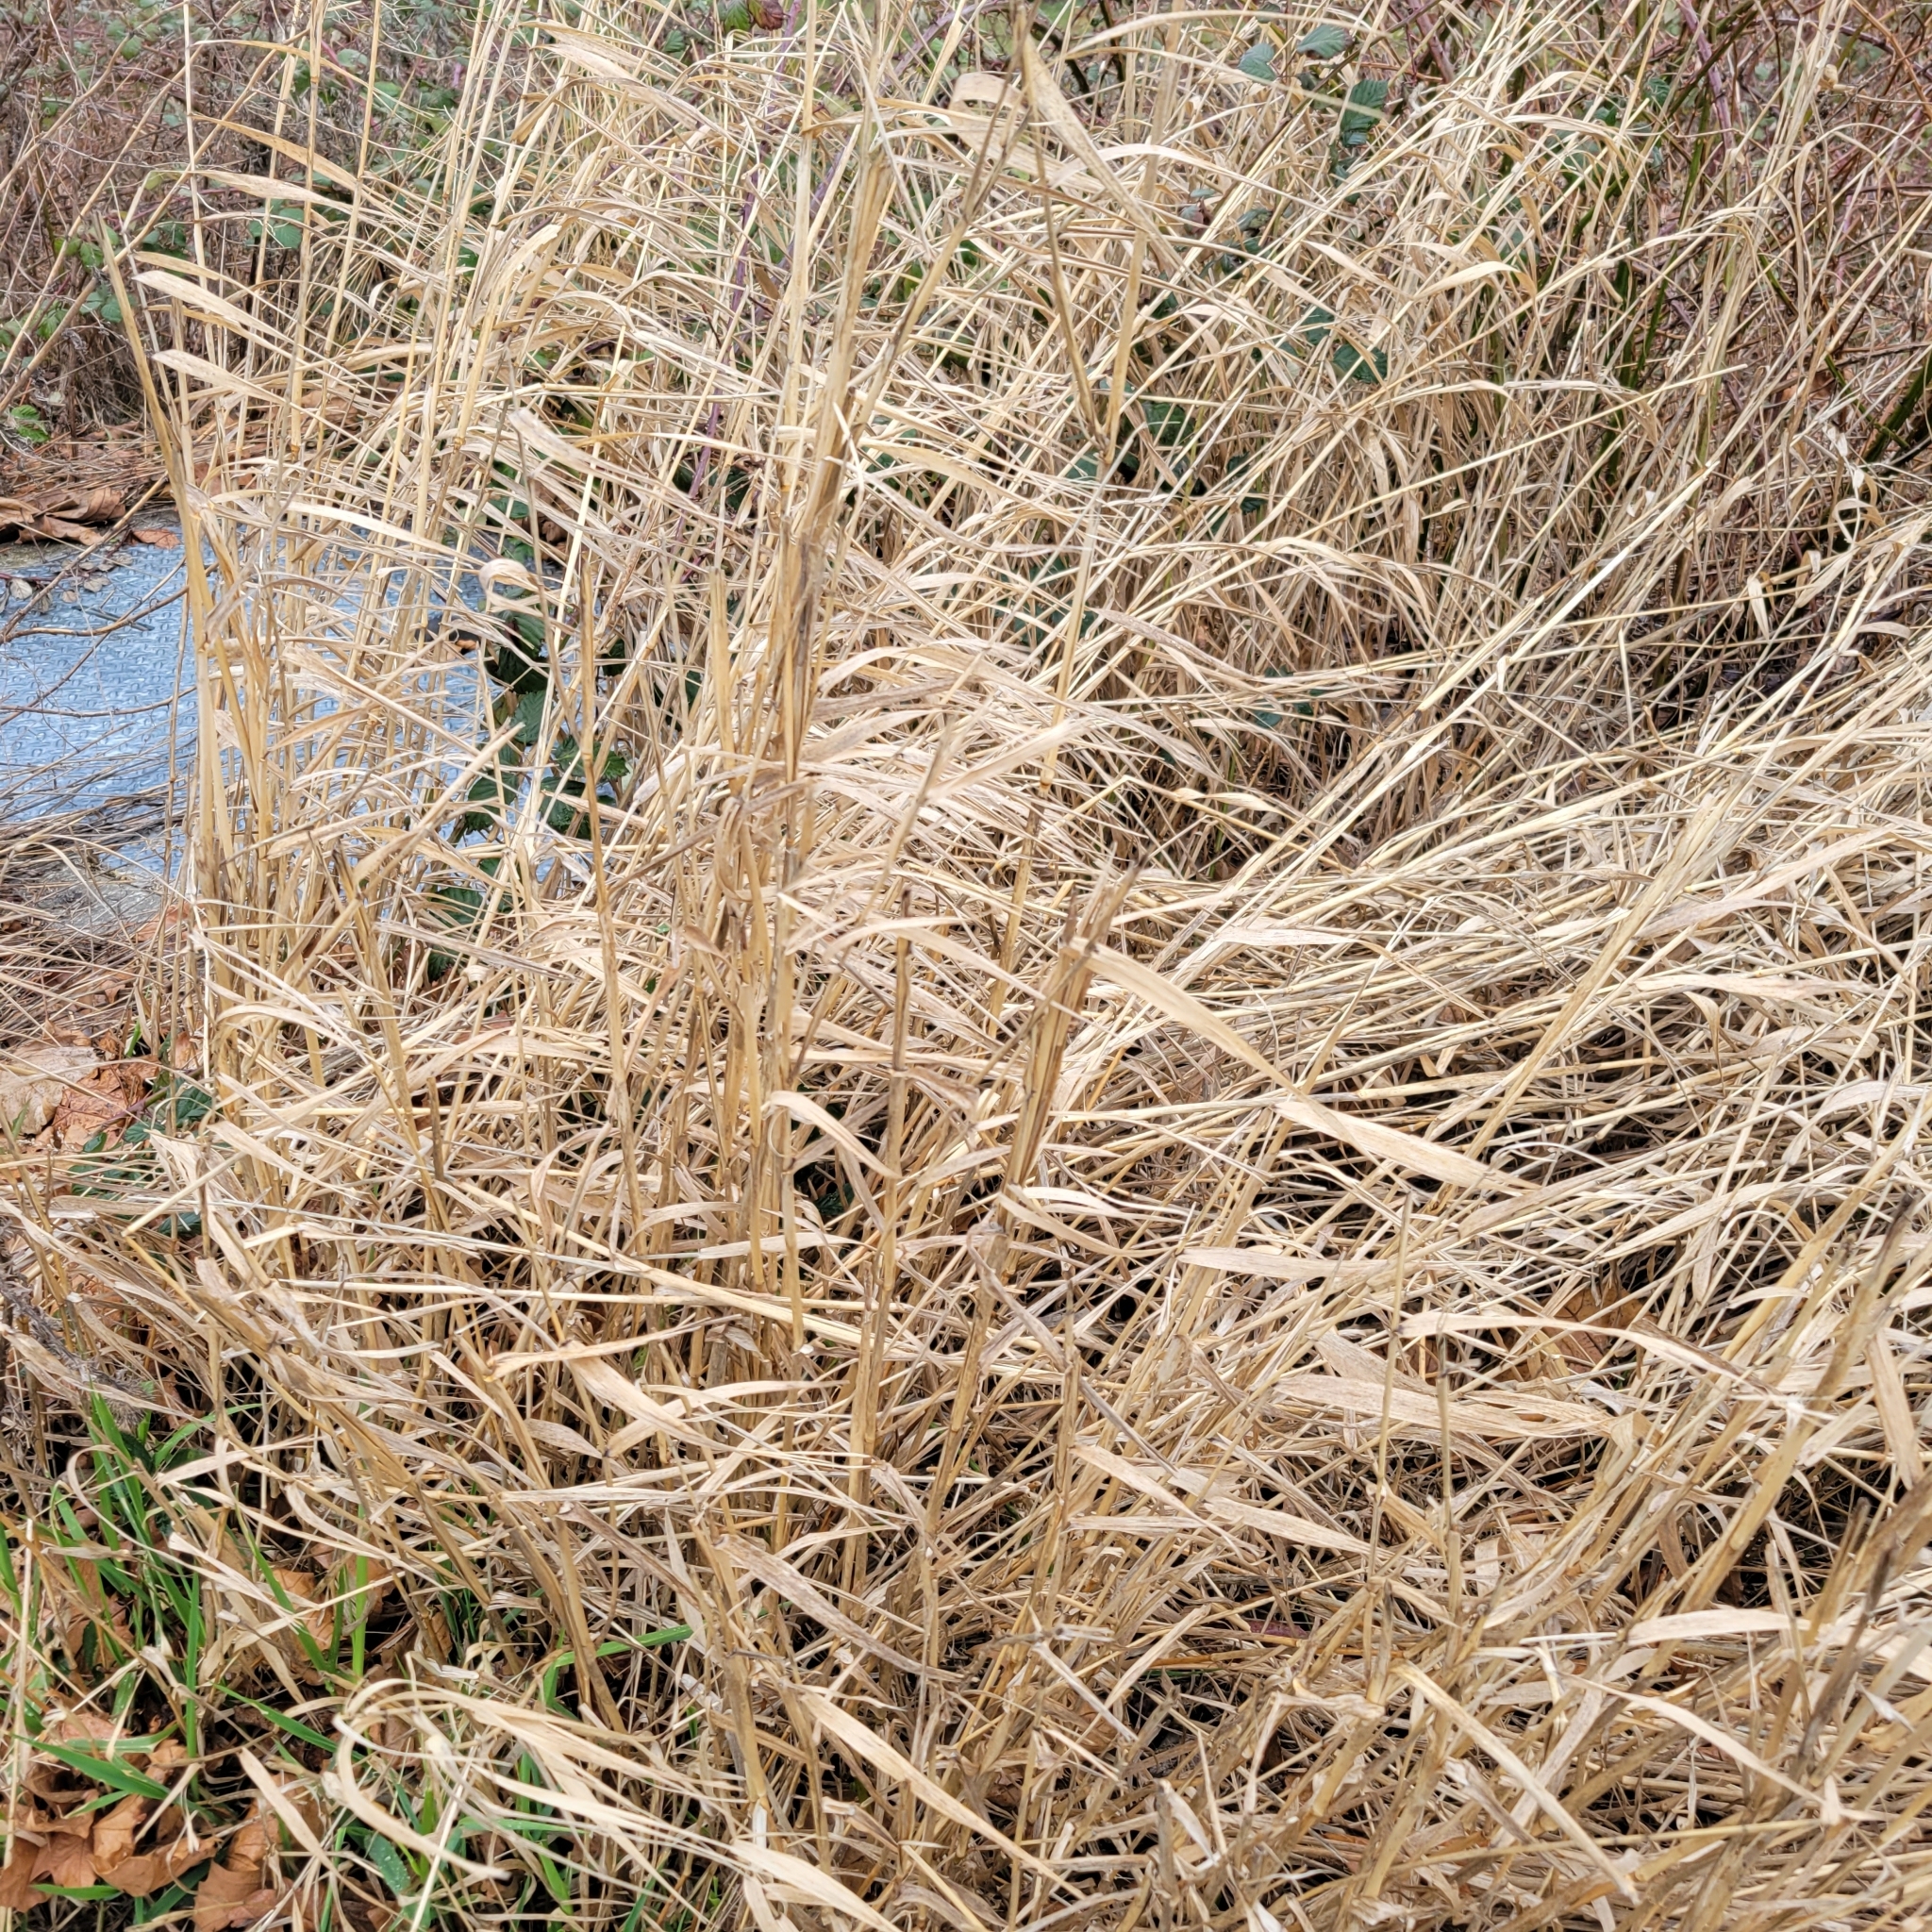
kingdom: Plantae
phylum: Tracheophyta
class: Liliopsida
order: Poales
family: Poaceae
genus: Phalaris
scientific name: Phalaris arundinacea
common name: Reed canary-grass
